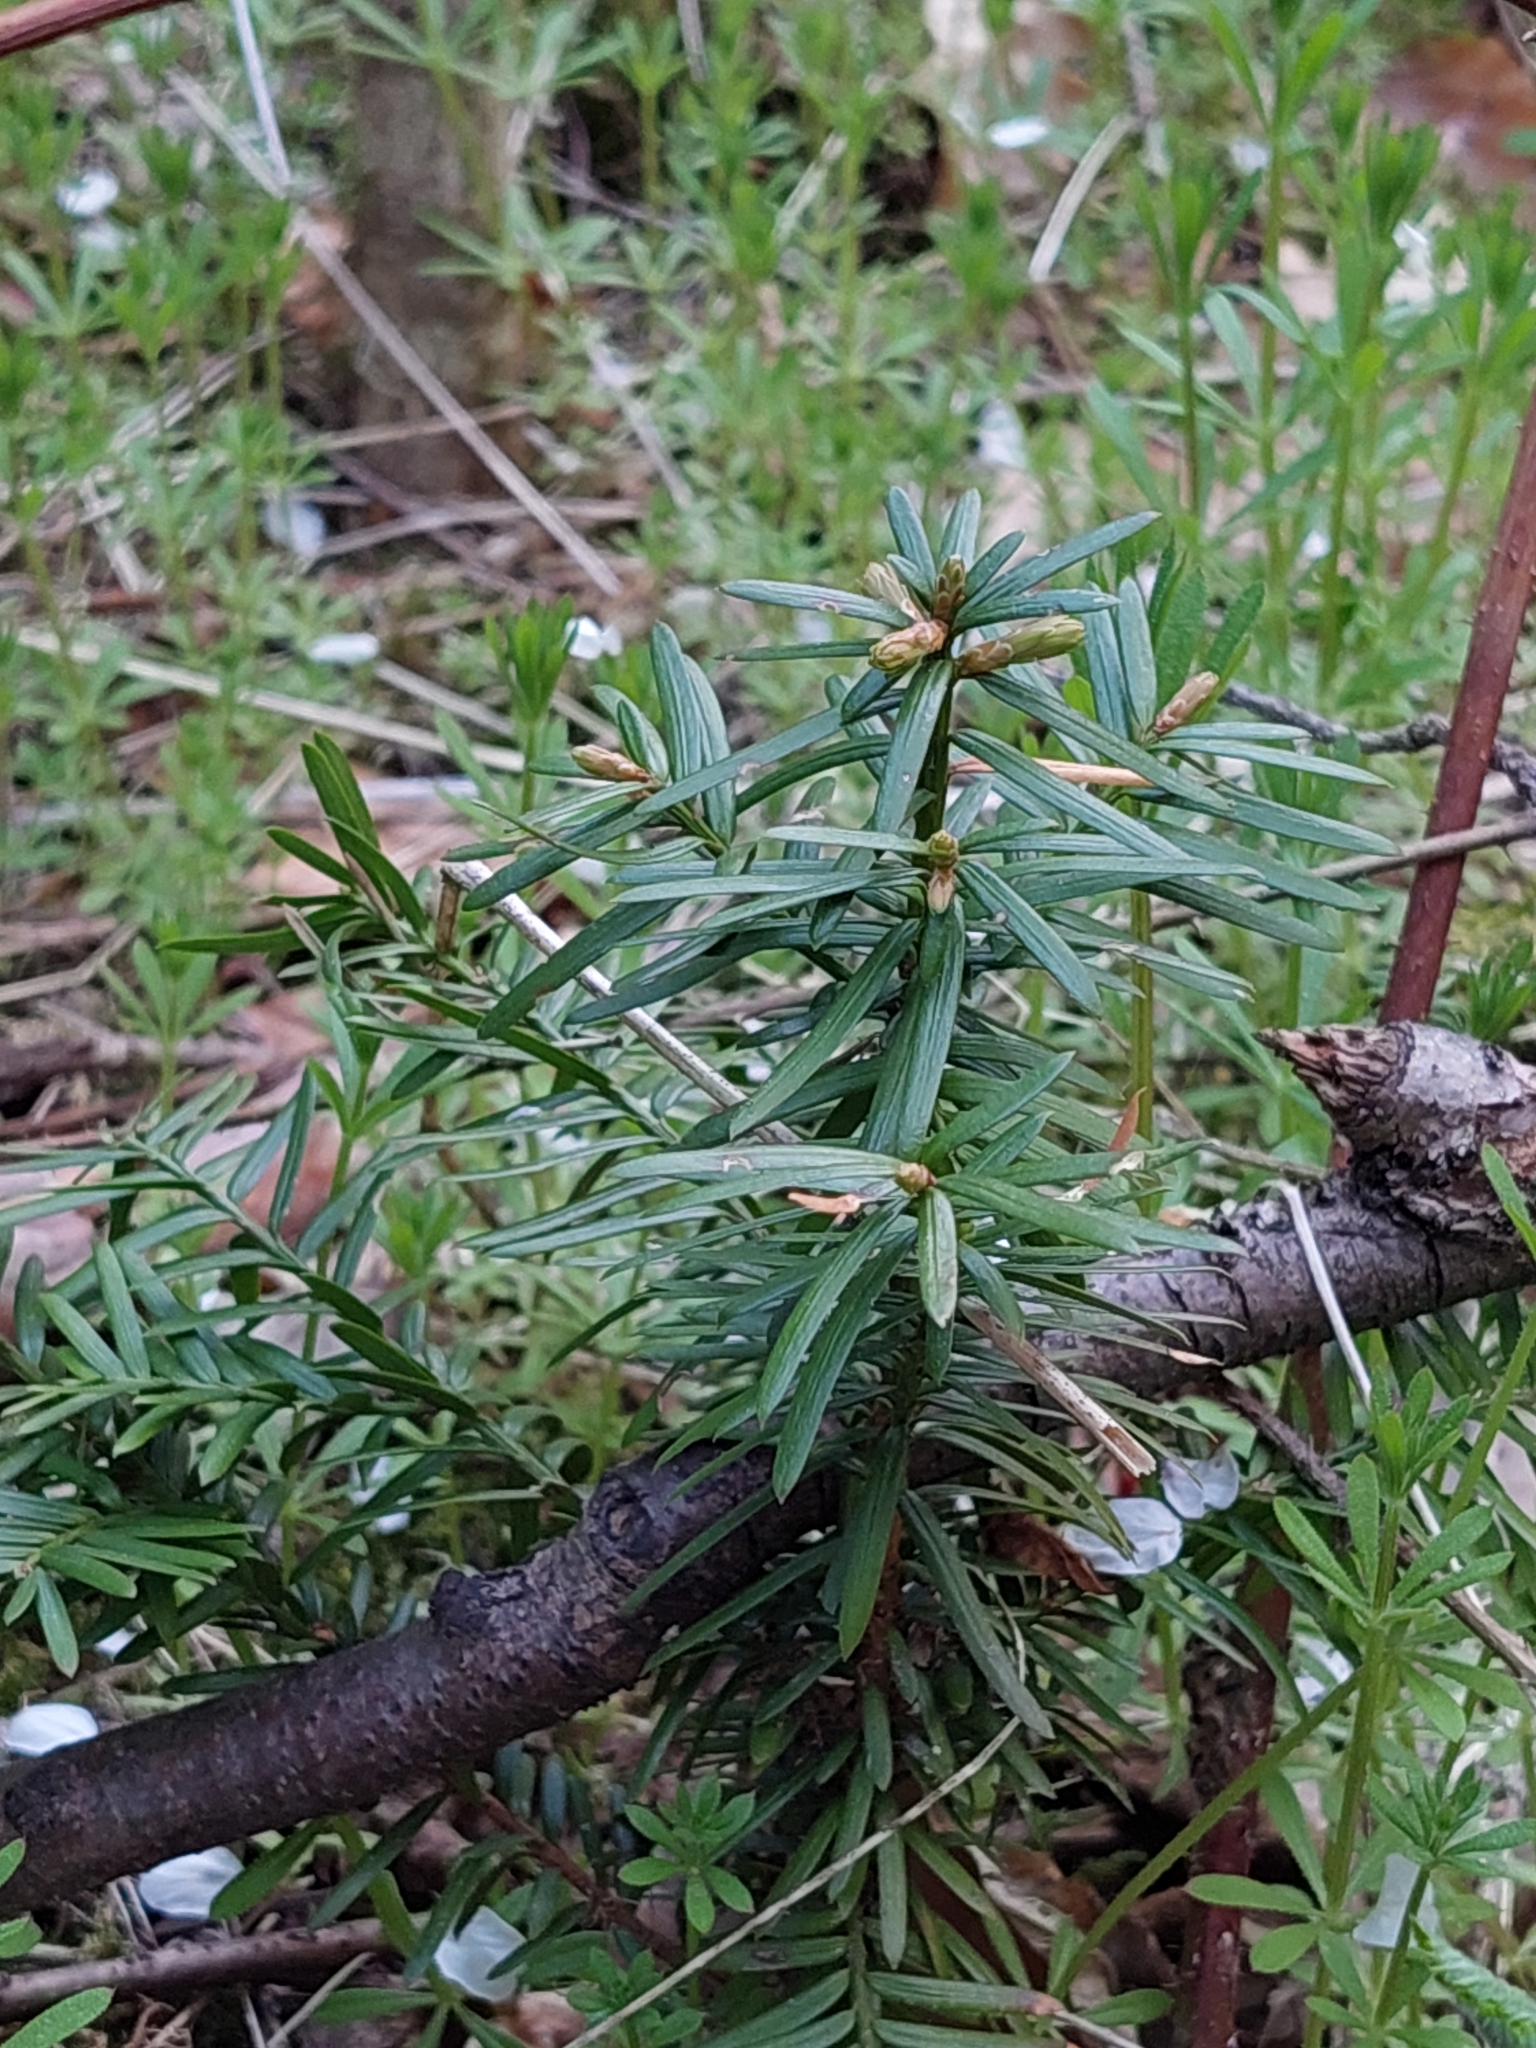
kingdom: Plantae
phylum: Tracheophyta
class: Pinopsida
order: Pinales
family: Taxaceae
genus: Taxus
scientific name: Taxus baccata
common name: Yew
